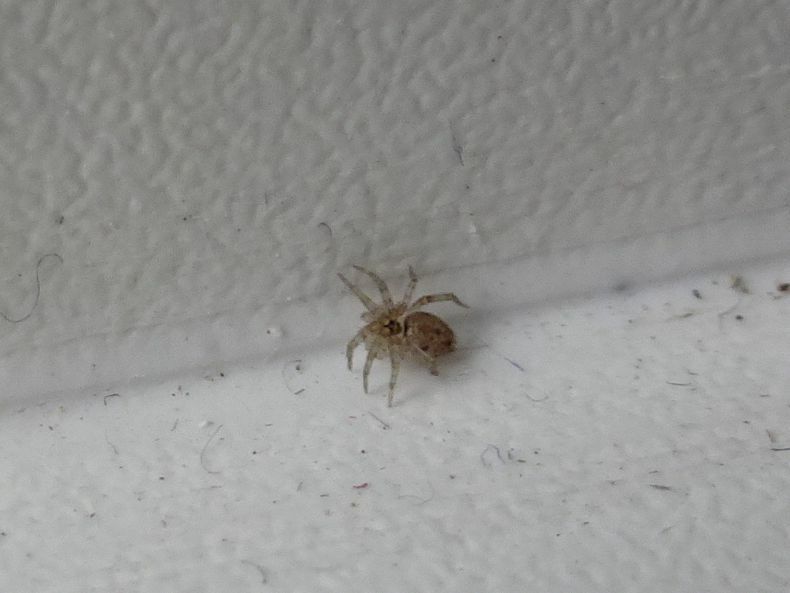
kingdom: Animalia
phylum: Arthropoda
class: Arachnida
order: Araneae
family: Oecobiidae
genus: Oecobius
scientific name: Oecobius maculatus
